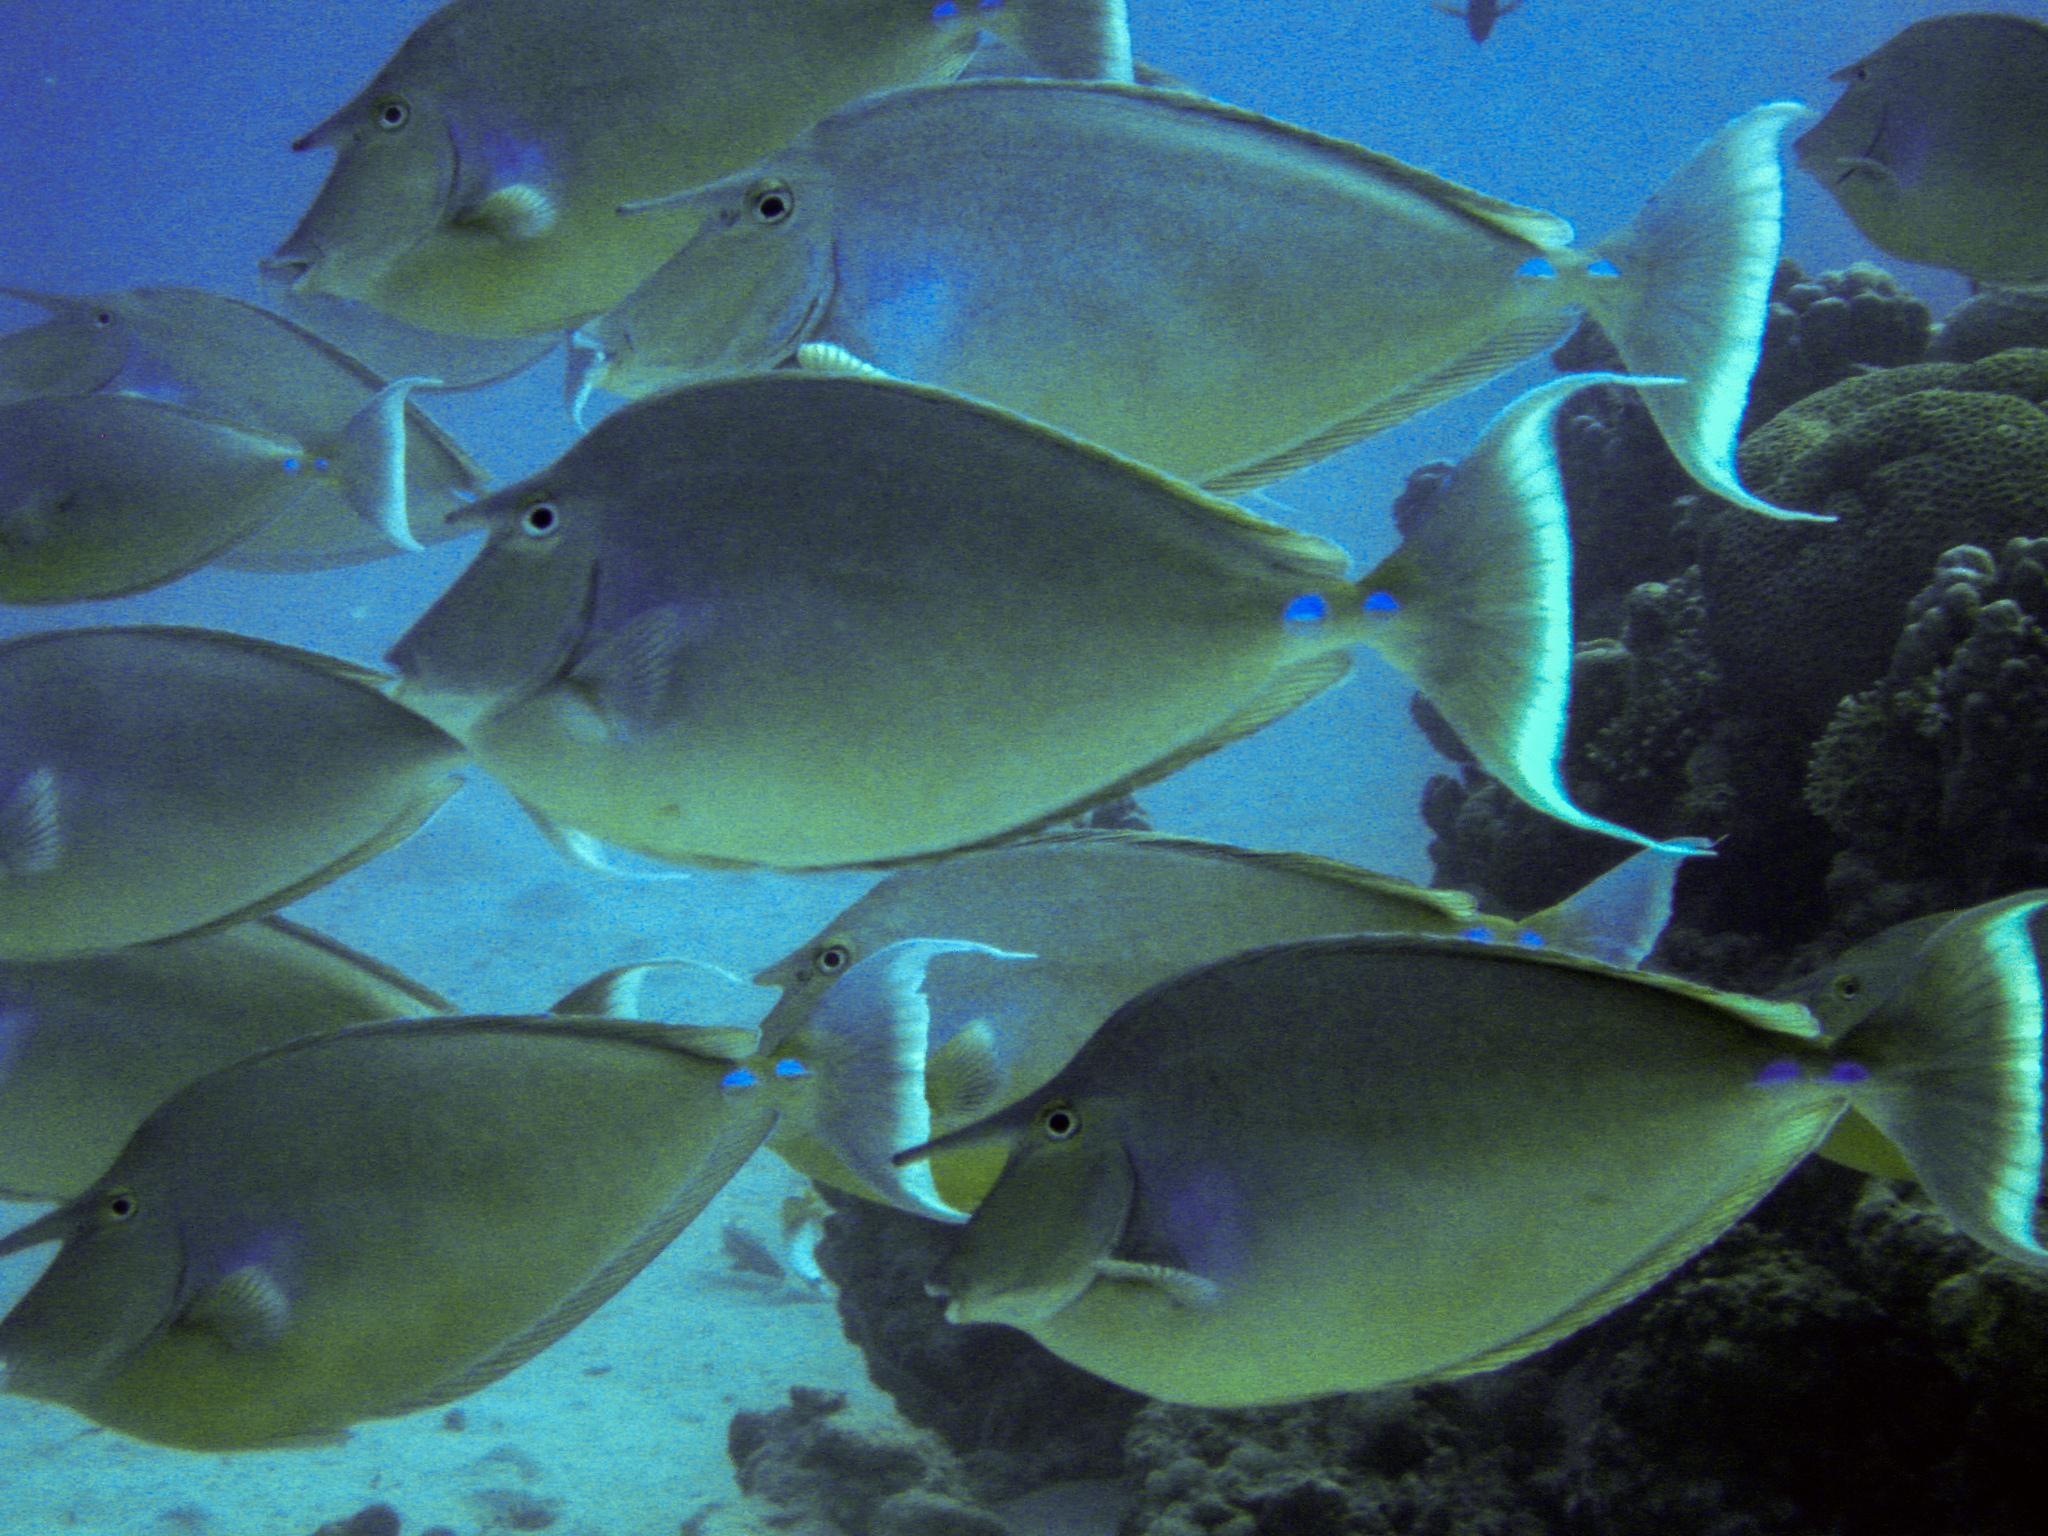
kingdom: Animalia
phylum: Chordata
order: Perciformes
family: Acanthuridae
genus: Naso
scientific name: Naso unicornis
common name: Bluespine unicornfish
